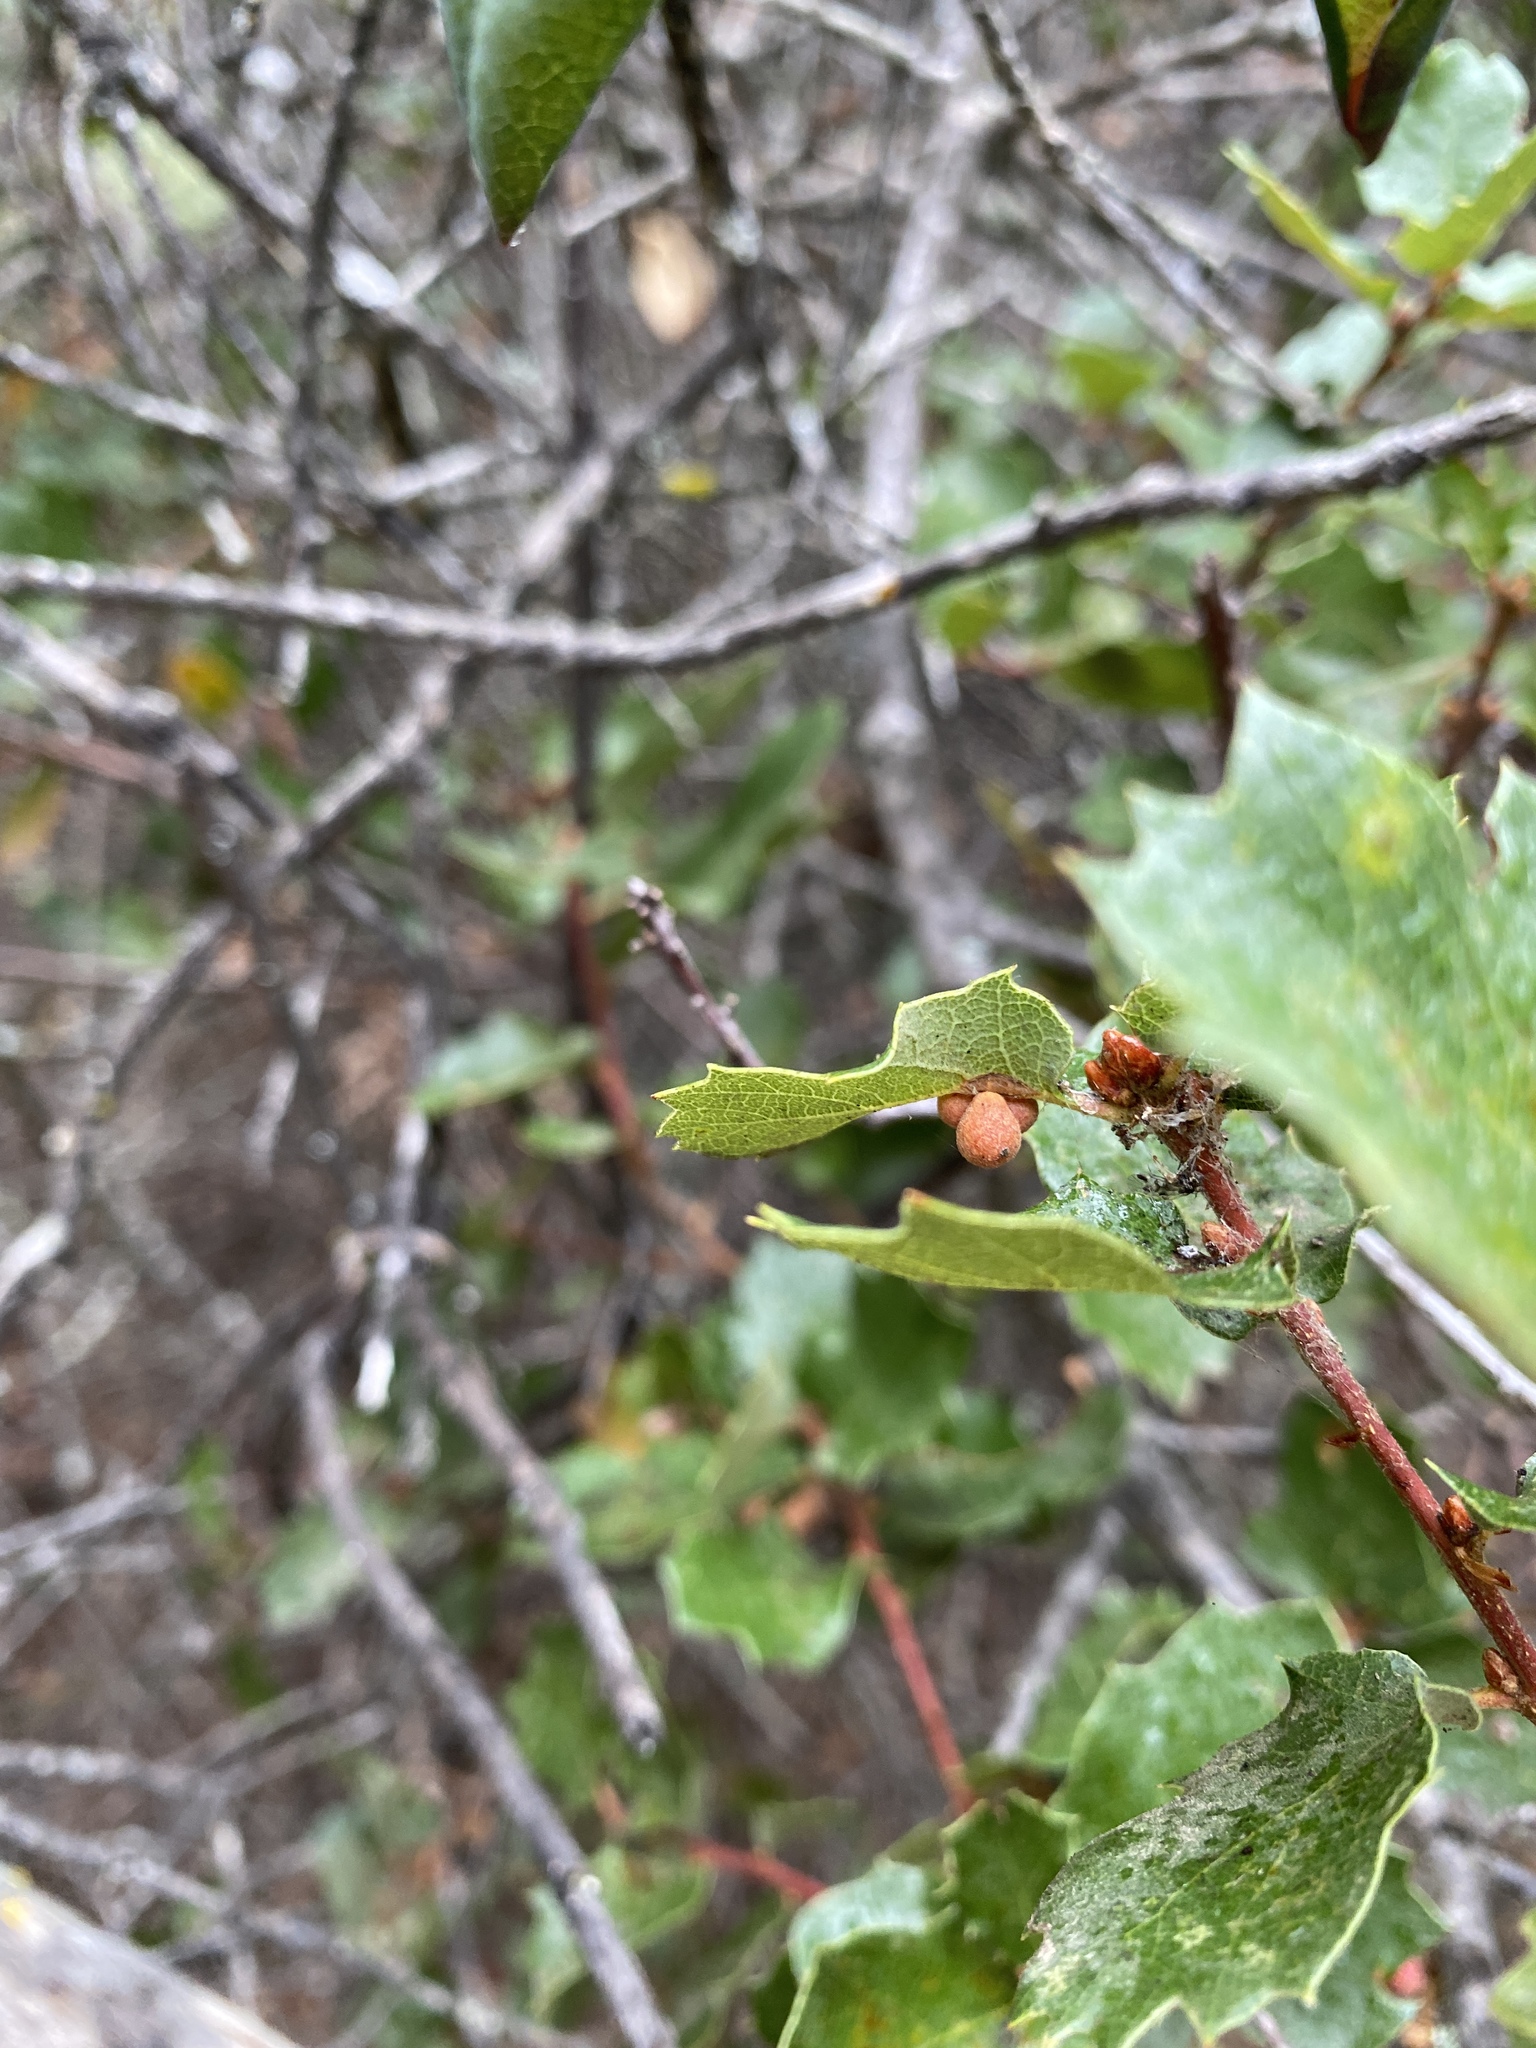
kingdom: Animalia
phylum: Arthropoda
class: Insecta
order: Hymenoptera
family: Cynipidae
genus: Andricus
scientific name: Andricus
